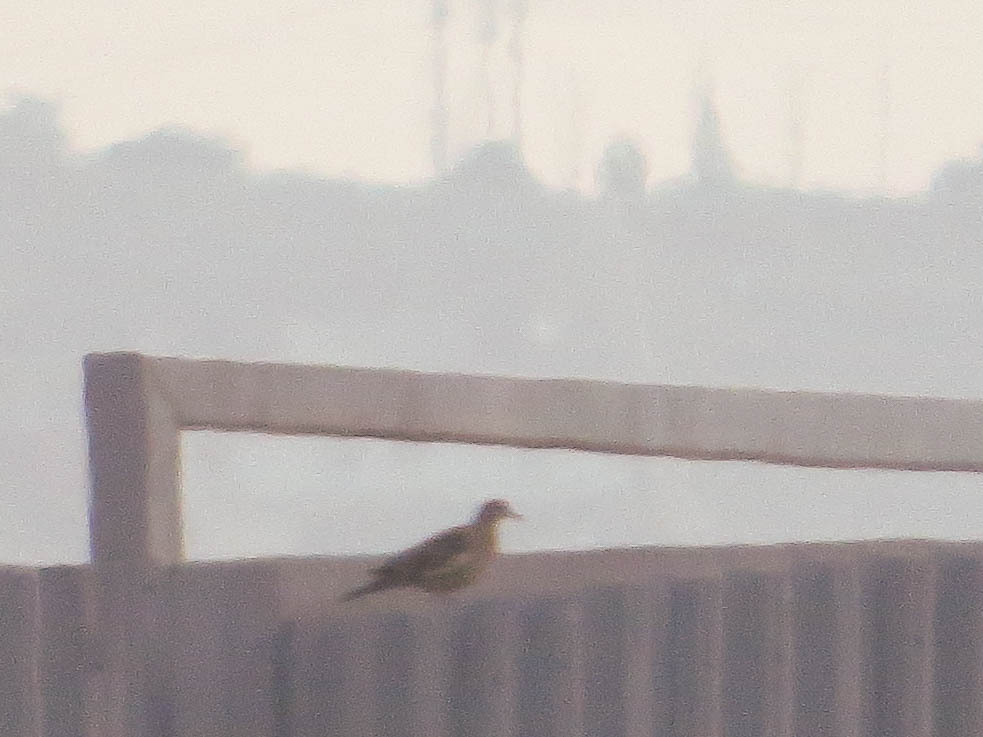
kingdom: Animalia
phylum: Chordata
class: Aves
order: Columbiformes
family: Columbidae
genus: Zenaida
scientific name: Zenaida meloda
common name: West peruvian dove
